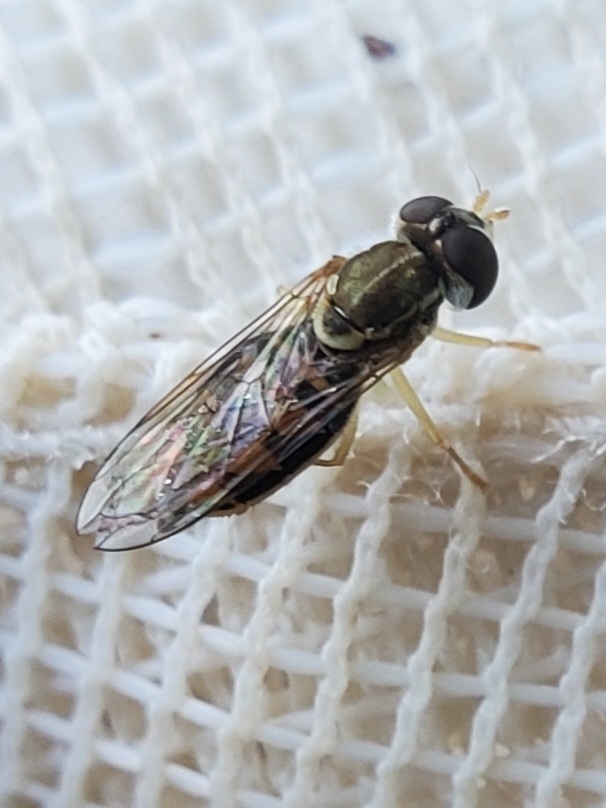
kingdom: Animalia
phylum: Arthropoda
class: Insecta
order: Diptera
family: Syrphidae
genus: Toxomerus
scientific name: Toxomerus marginatus
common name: Syrphid fly
